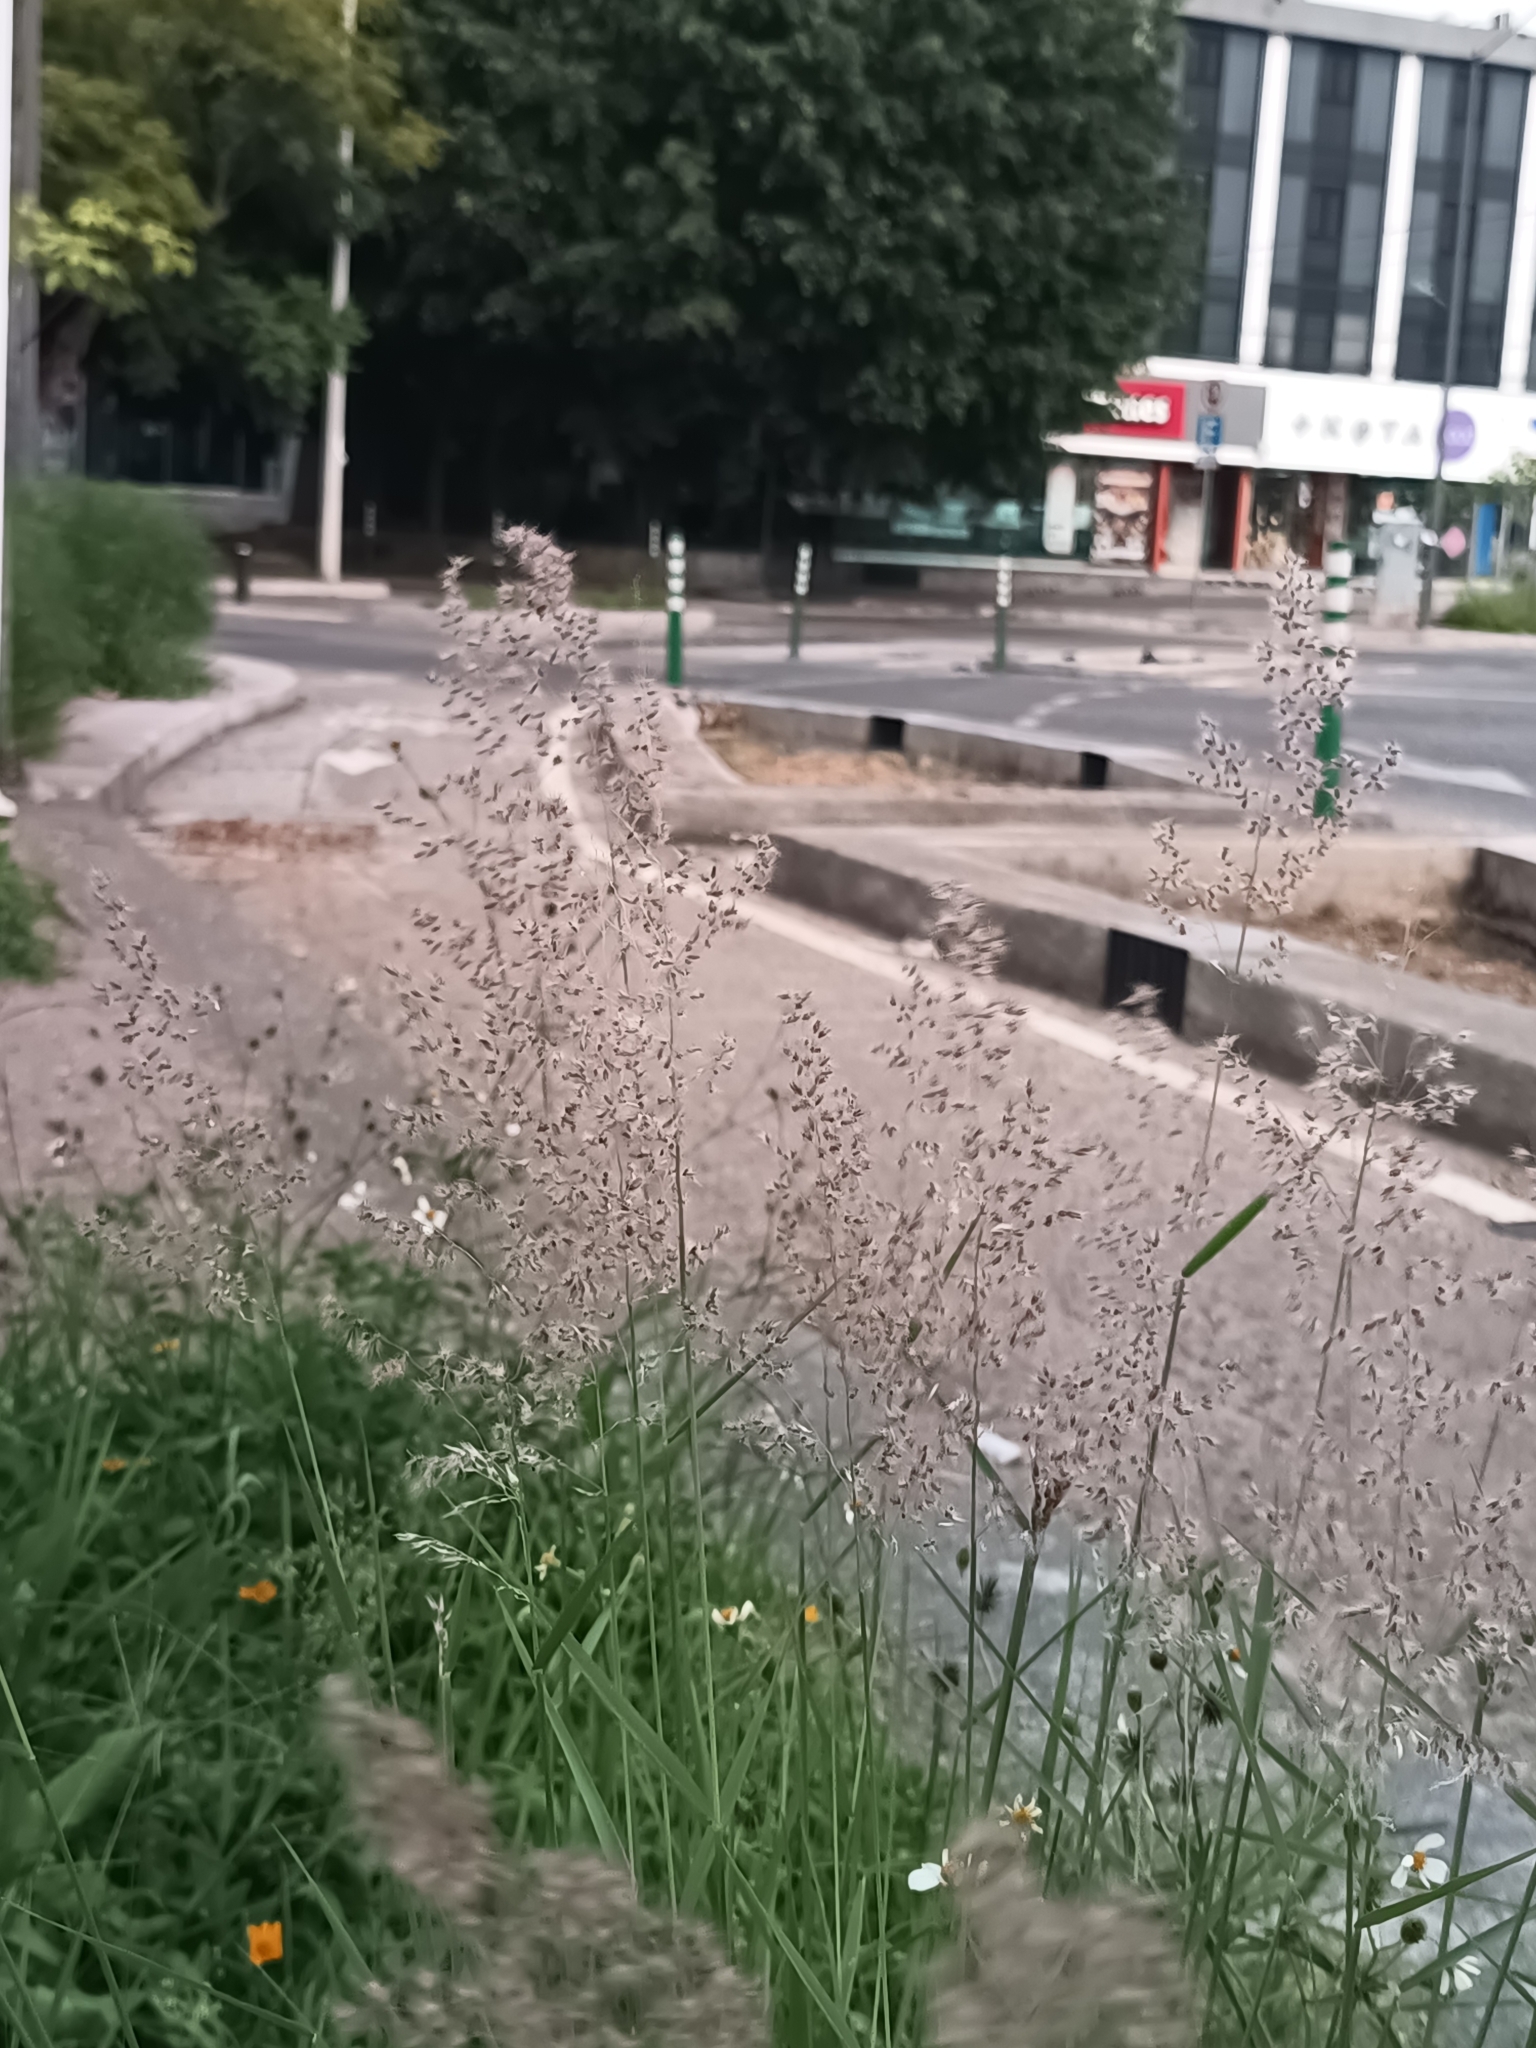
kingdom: Plantae
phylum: Tracheophyta
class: Liliopsida
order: Poales
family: Poaceae
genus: Melinis
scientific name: Melinis repens
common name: Rose natal grass
